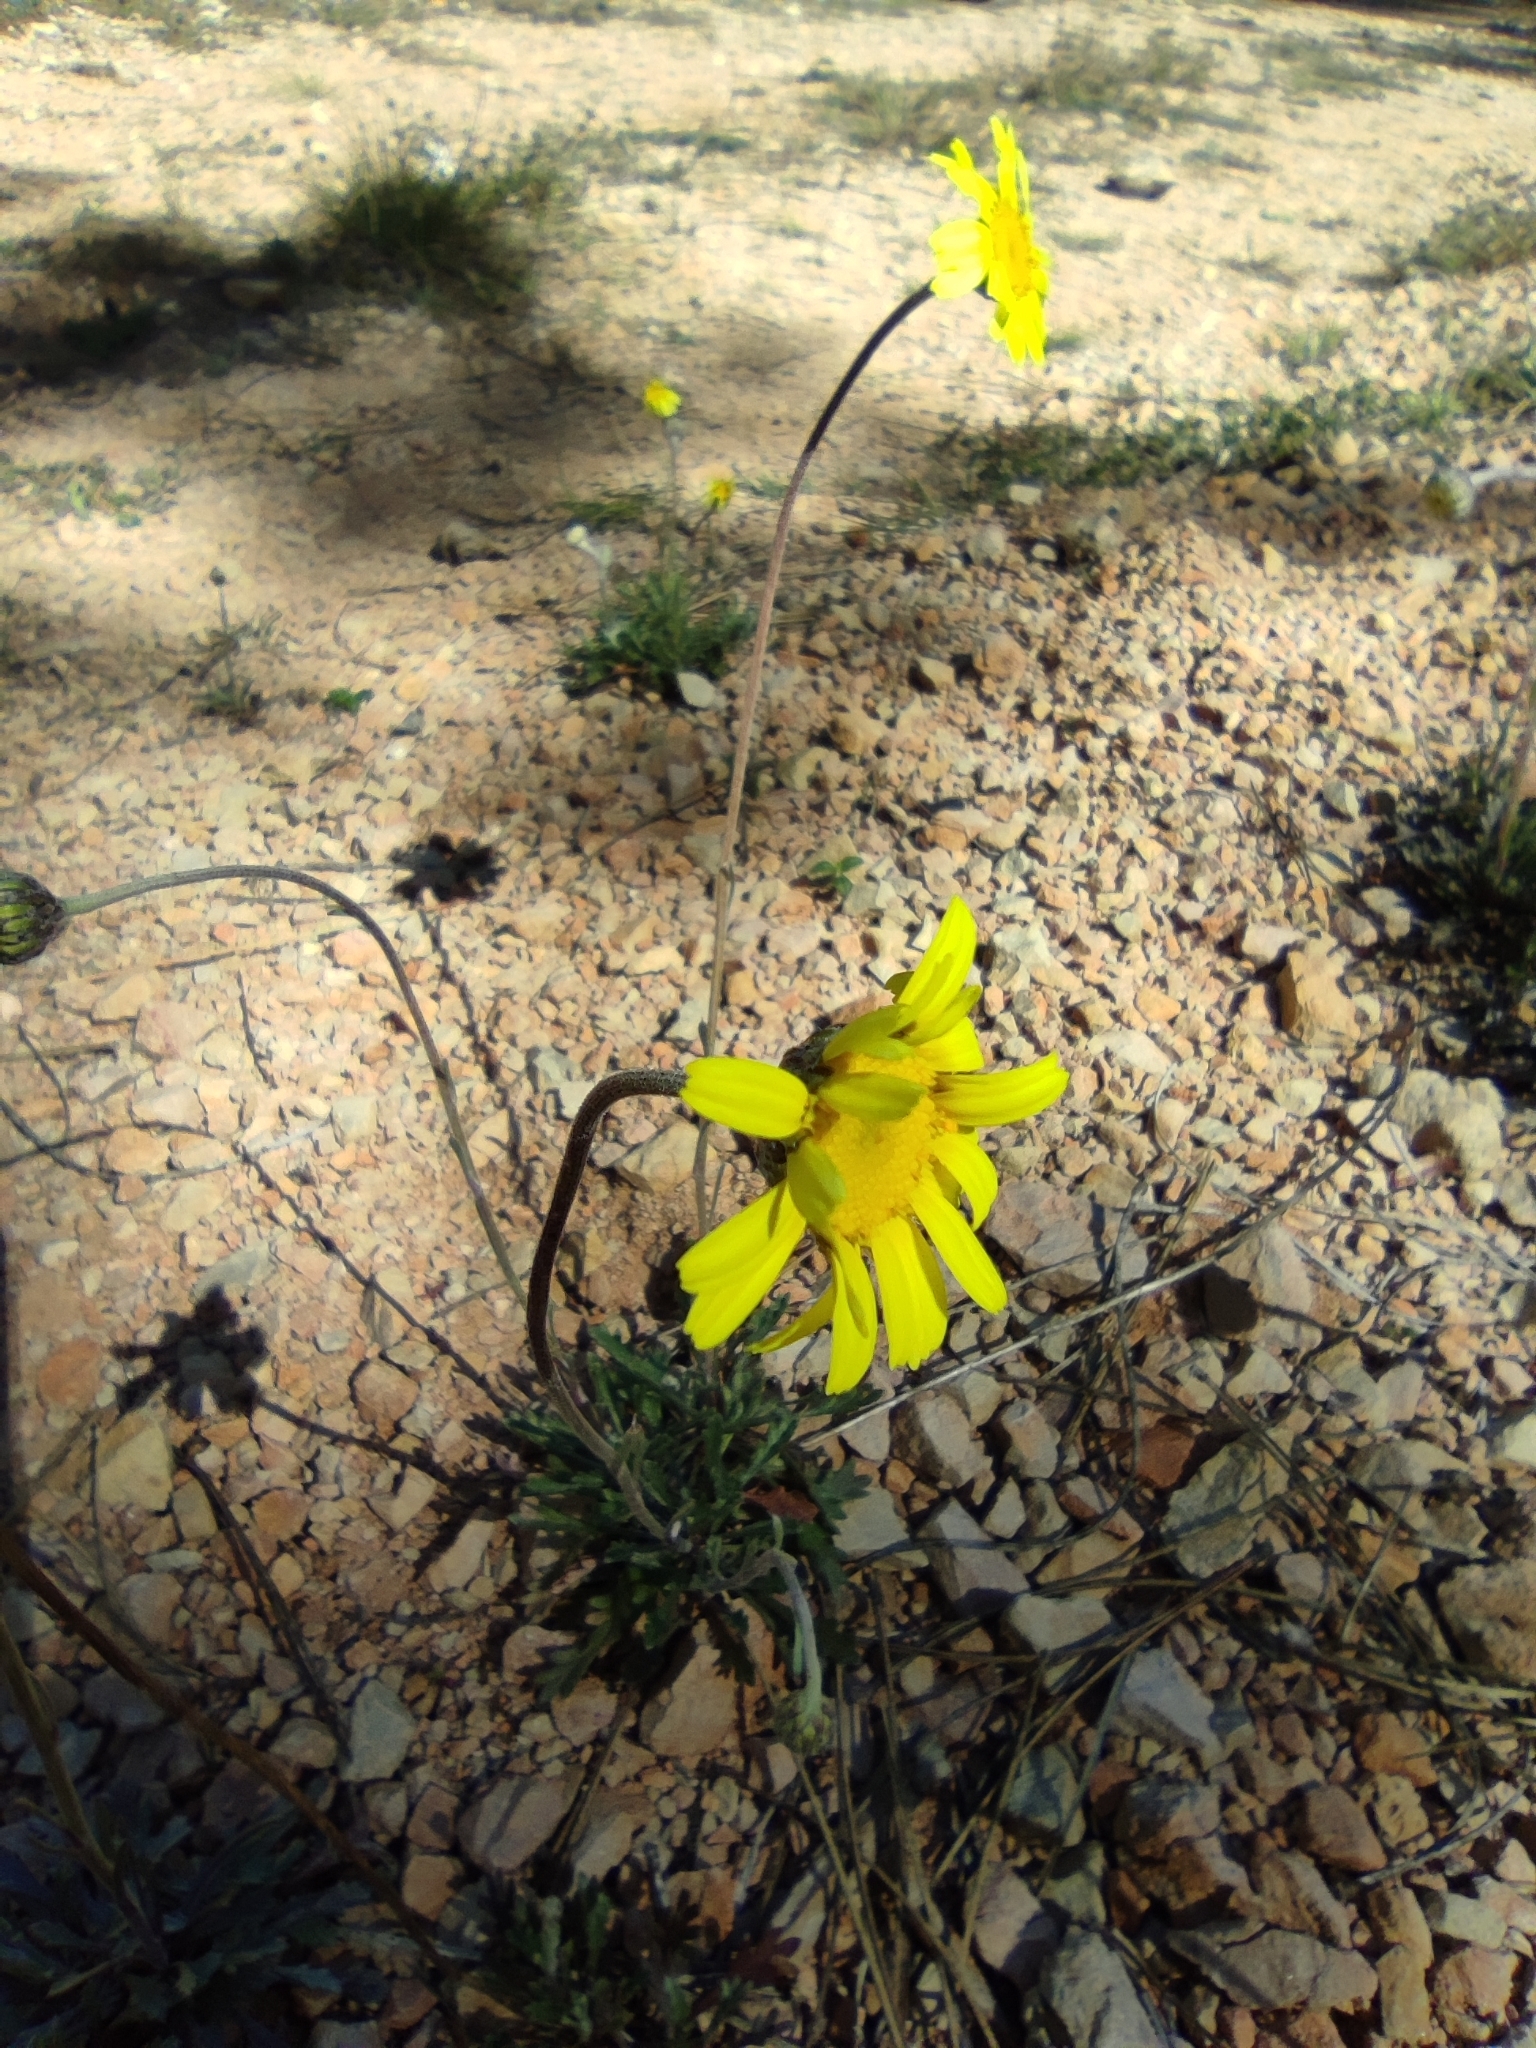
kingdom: Plantae
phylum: Tracheophyta
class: Magnoliopsida
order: Asterales
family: Asteraceae
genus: Leucanthemopsis
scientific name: Leucanthemopsis spathulifolia
